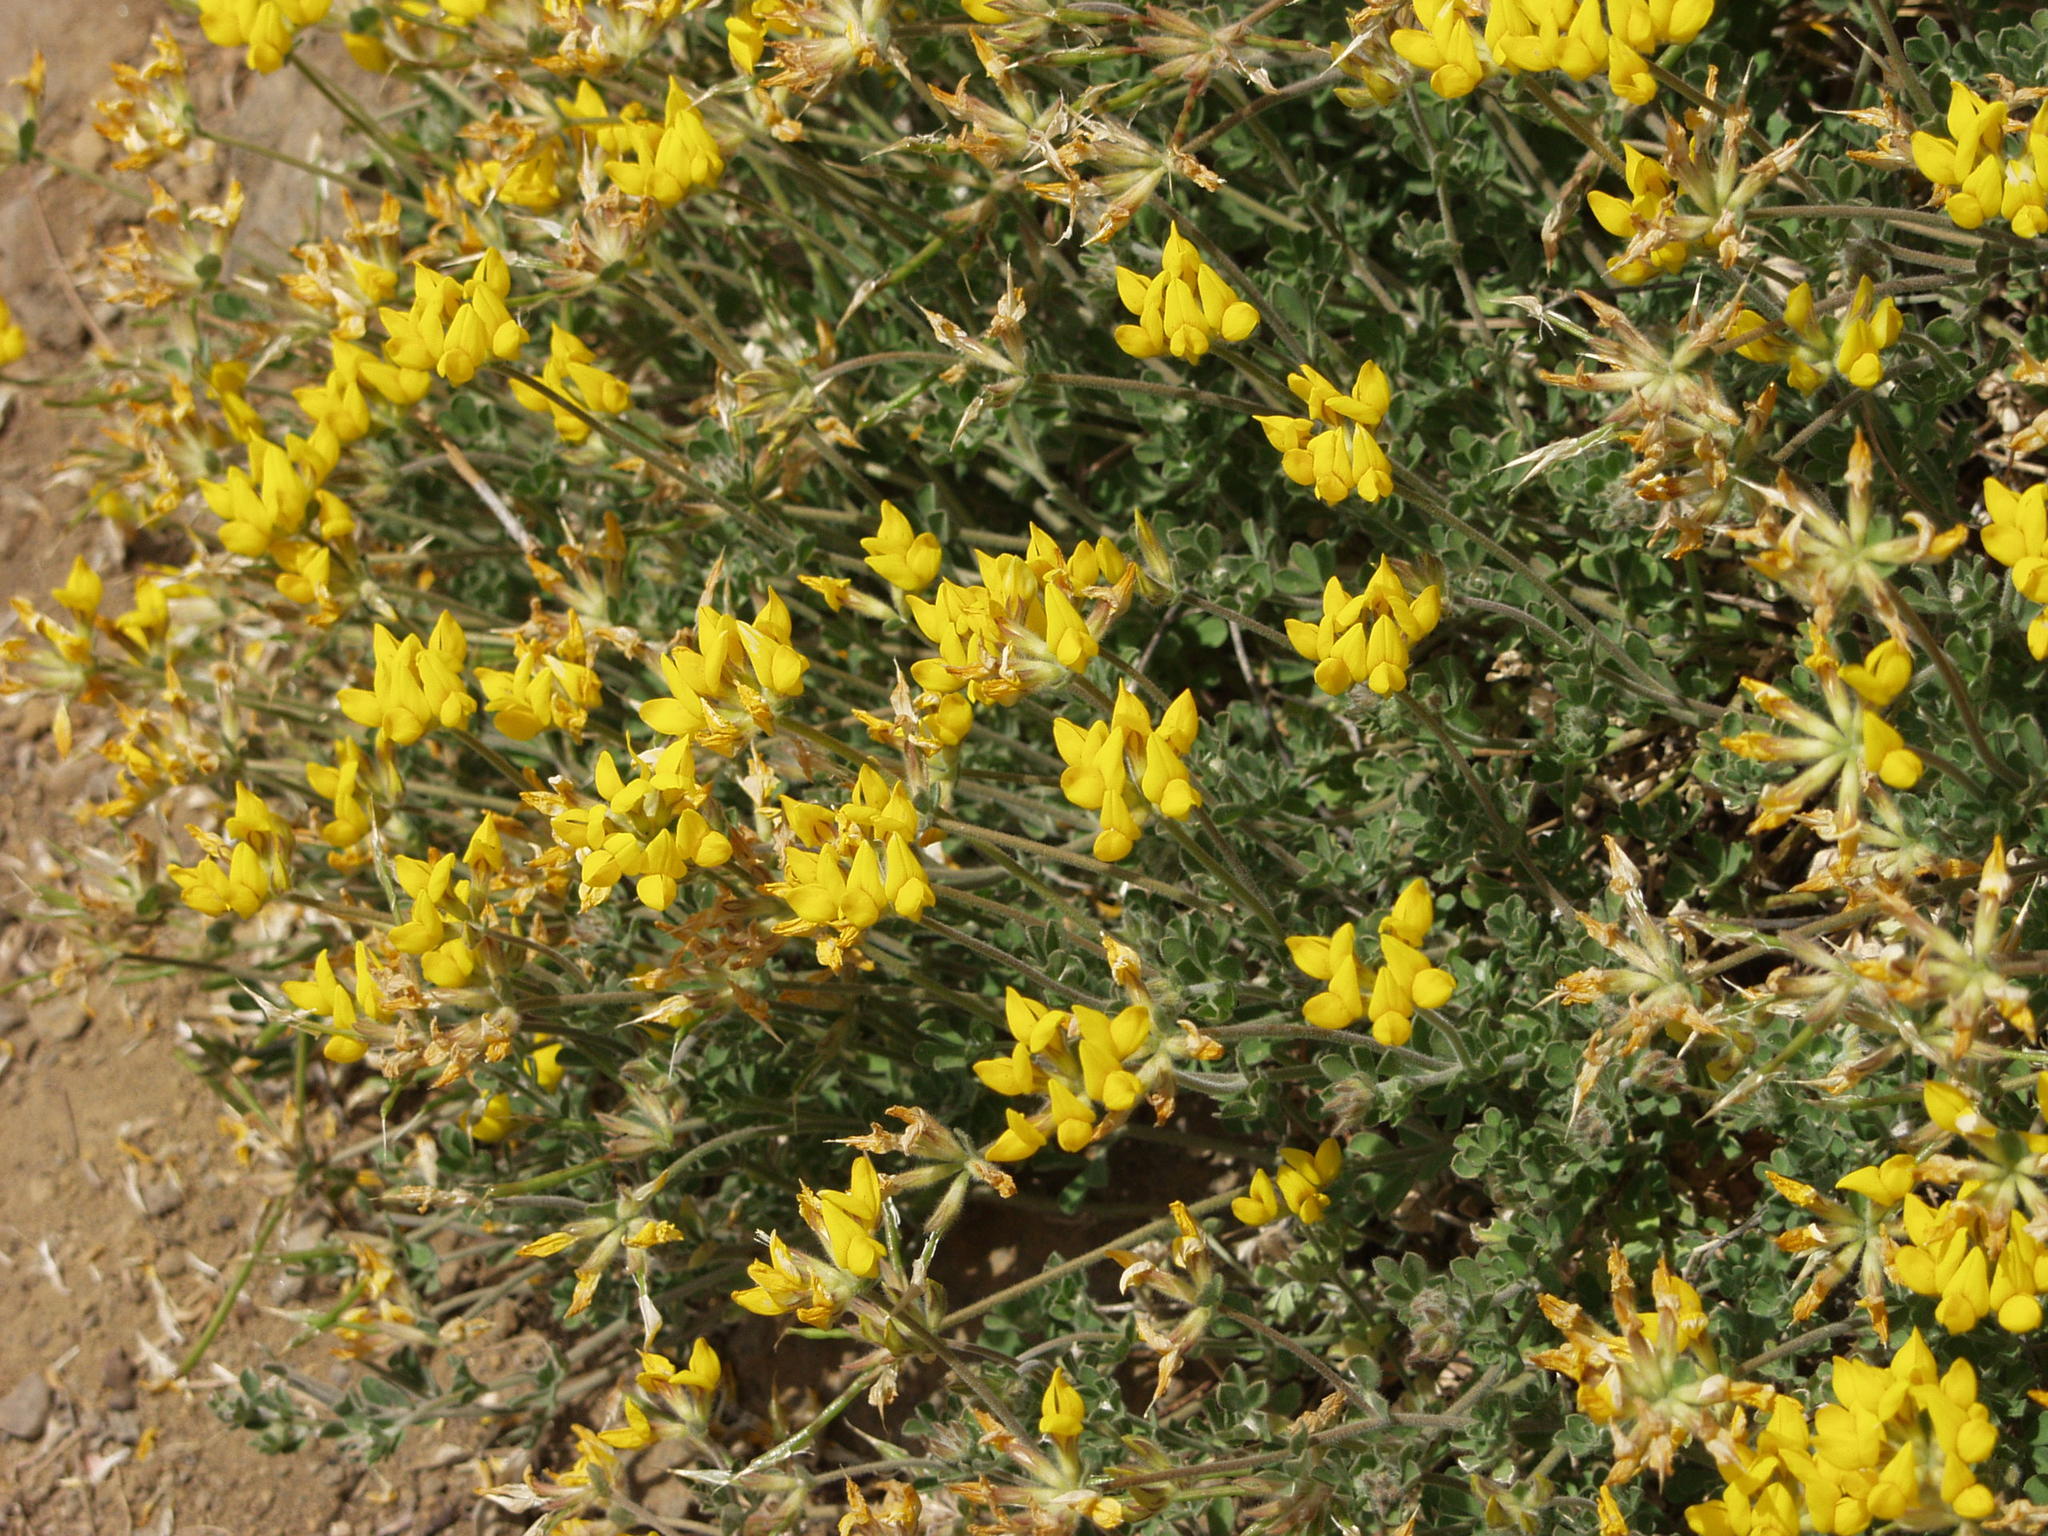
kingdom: Plantae
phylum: Tracheophyta
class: Magnoliopsida
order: Fabales
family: Fabaceae
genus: Lotus
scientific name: Lotus campylocladus
